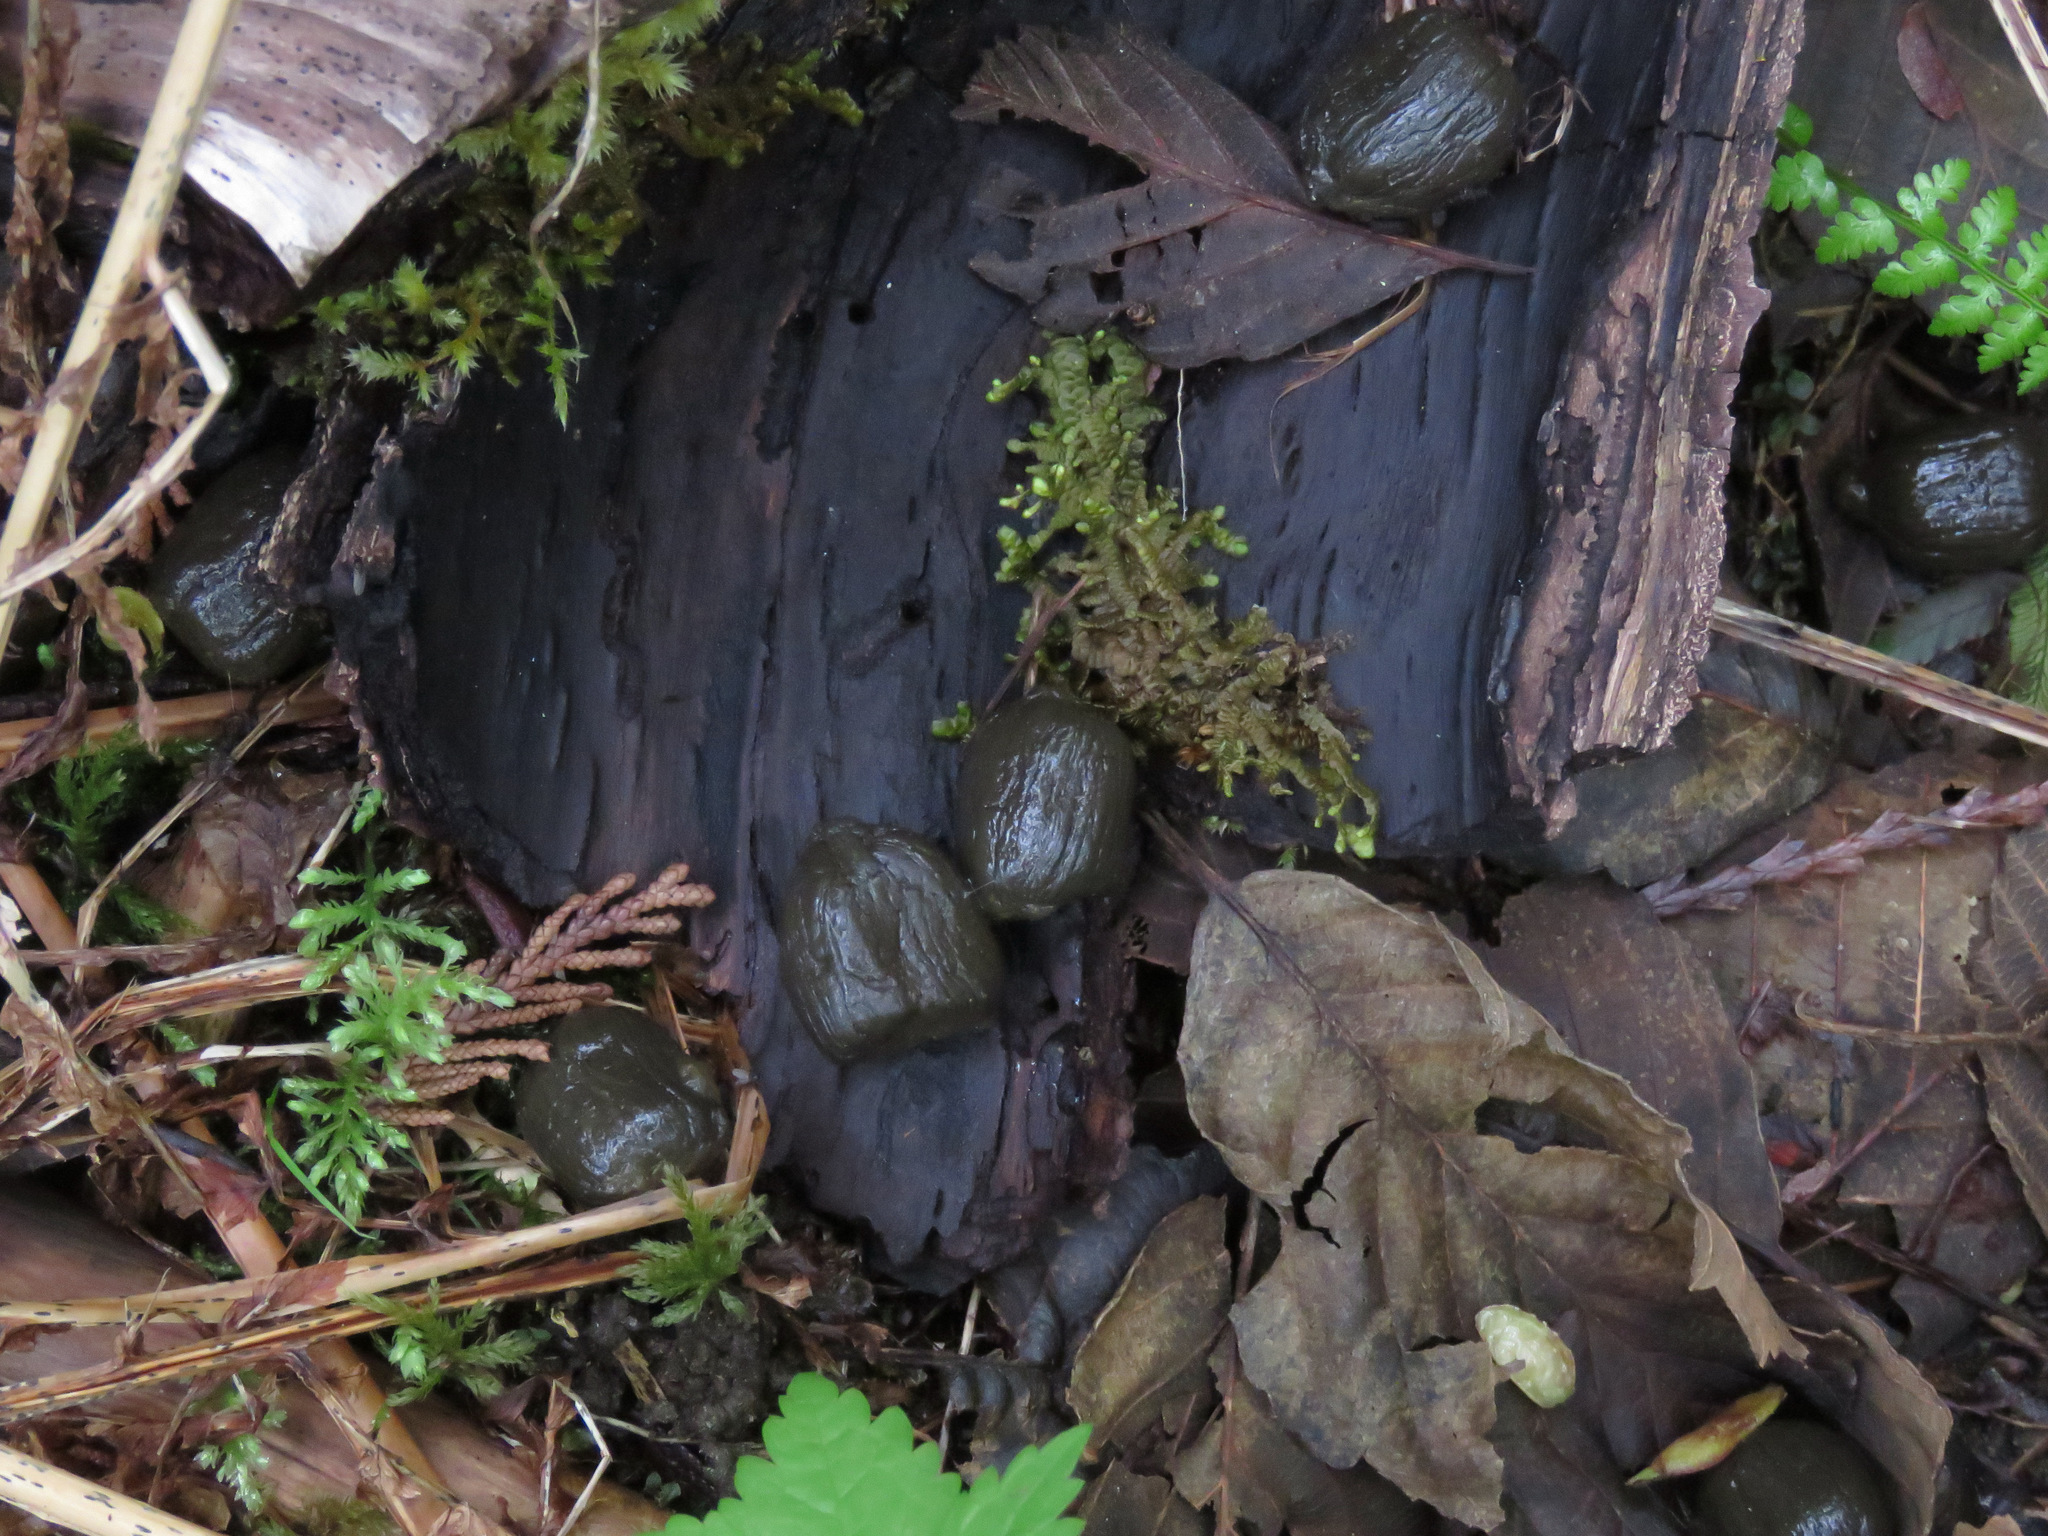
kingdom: Animalia
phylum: Chordata
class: Mammalia
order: Artiodactyla
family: Cervidae
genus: Cervus
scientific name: Cervus elaphus
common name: Red deer
